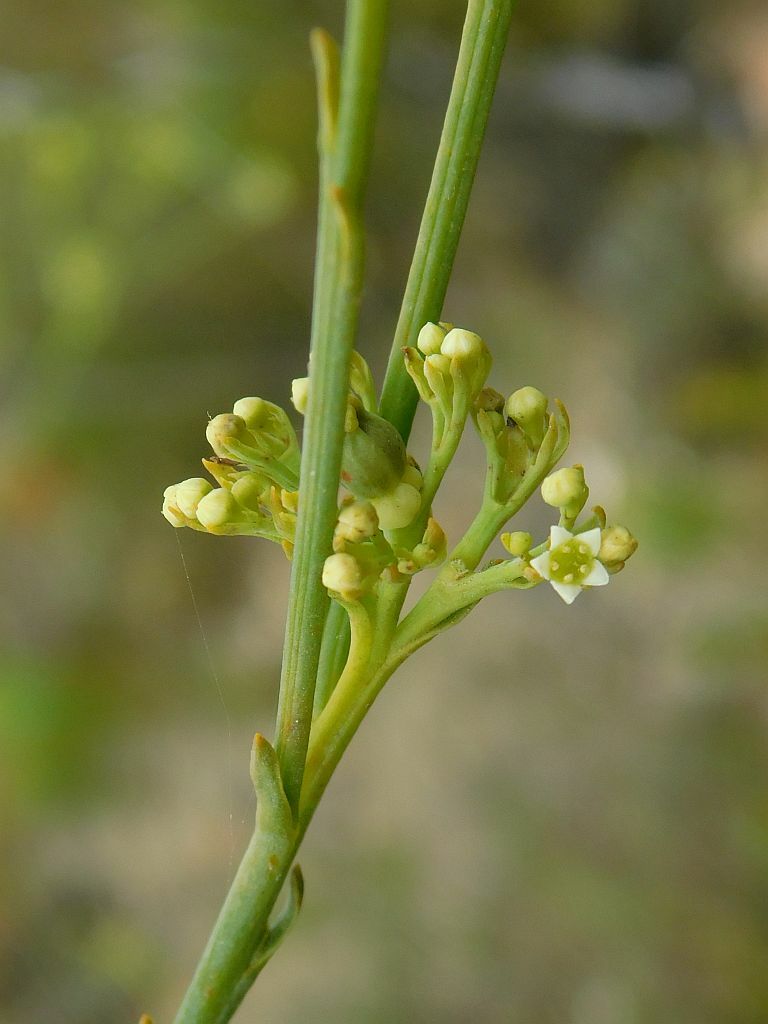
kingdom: Plantae
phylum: Tracheophyta
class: Magnoliopsida
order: Santalales
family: Thesiaceae
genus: Thesium
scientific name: Thesium strictum
